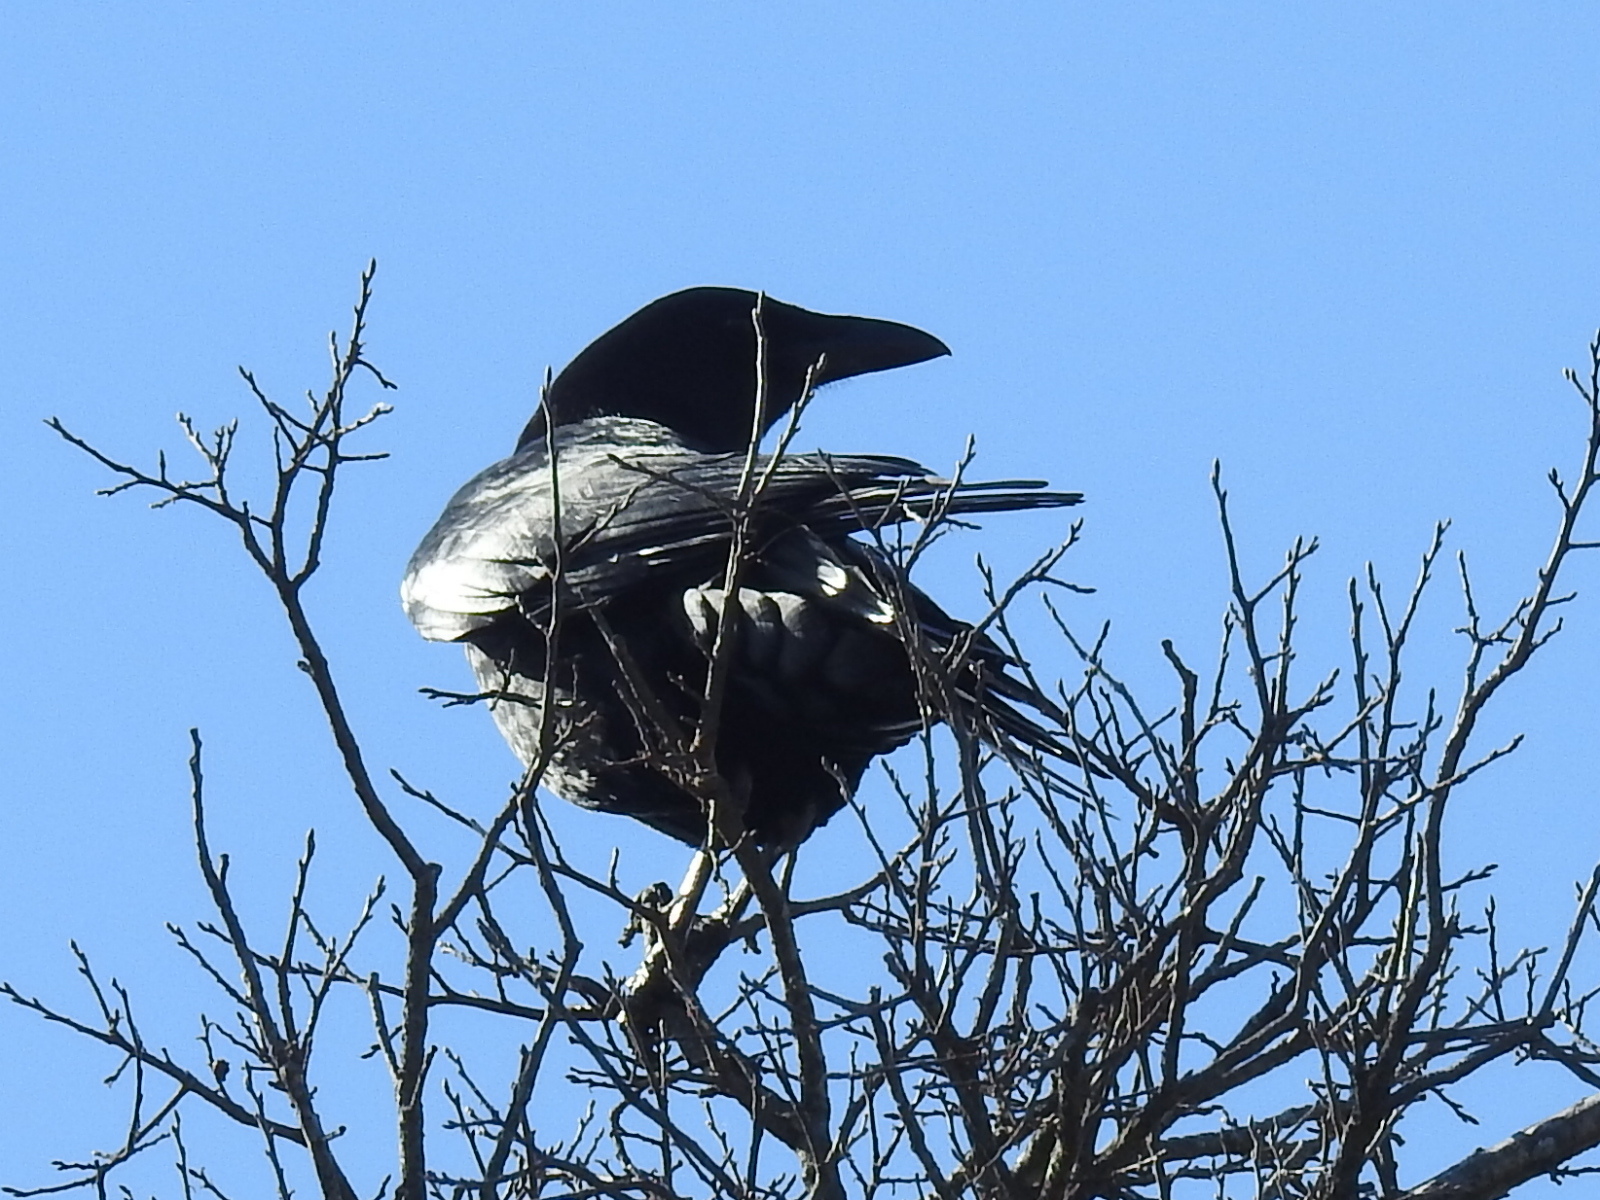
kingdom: Animalia
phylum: Chordata
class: Aves
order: Passeriformes
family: Corvidae
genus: Corvus
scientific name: Corvus brachyrhynchos
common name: American crow
